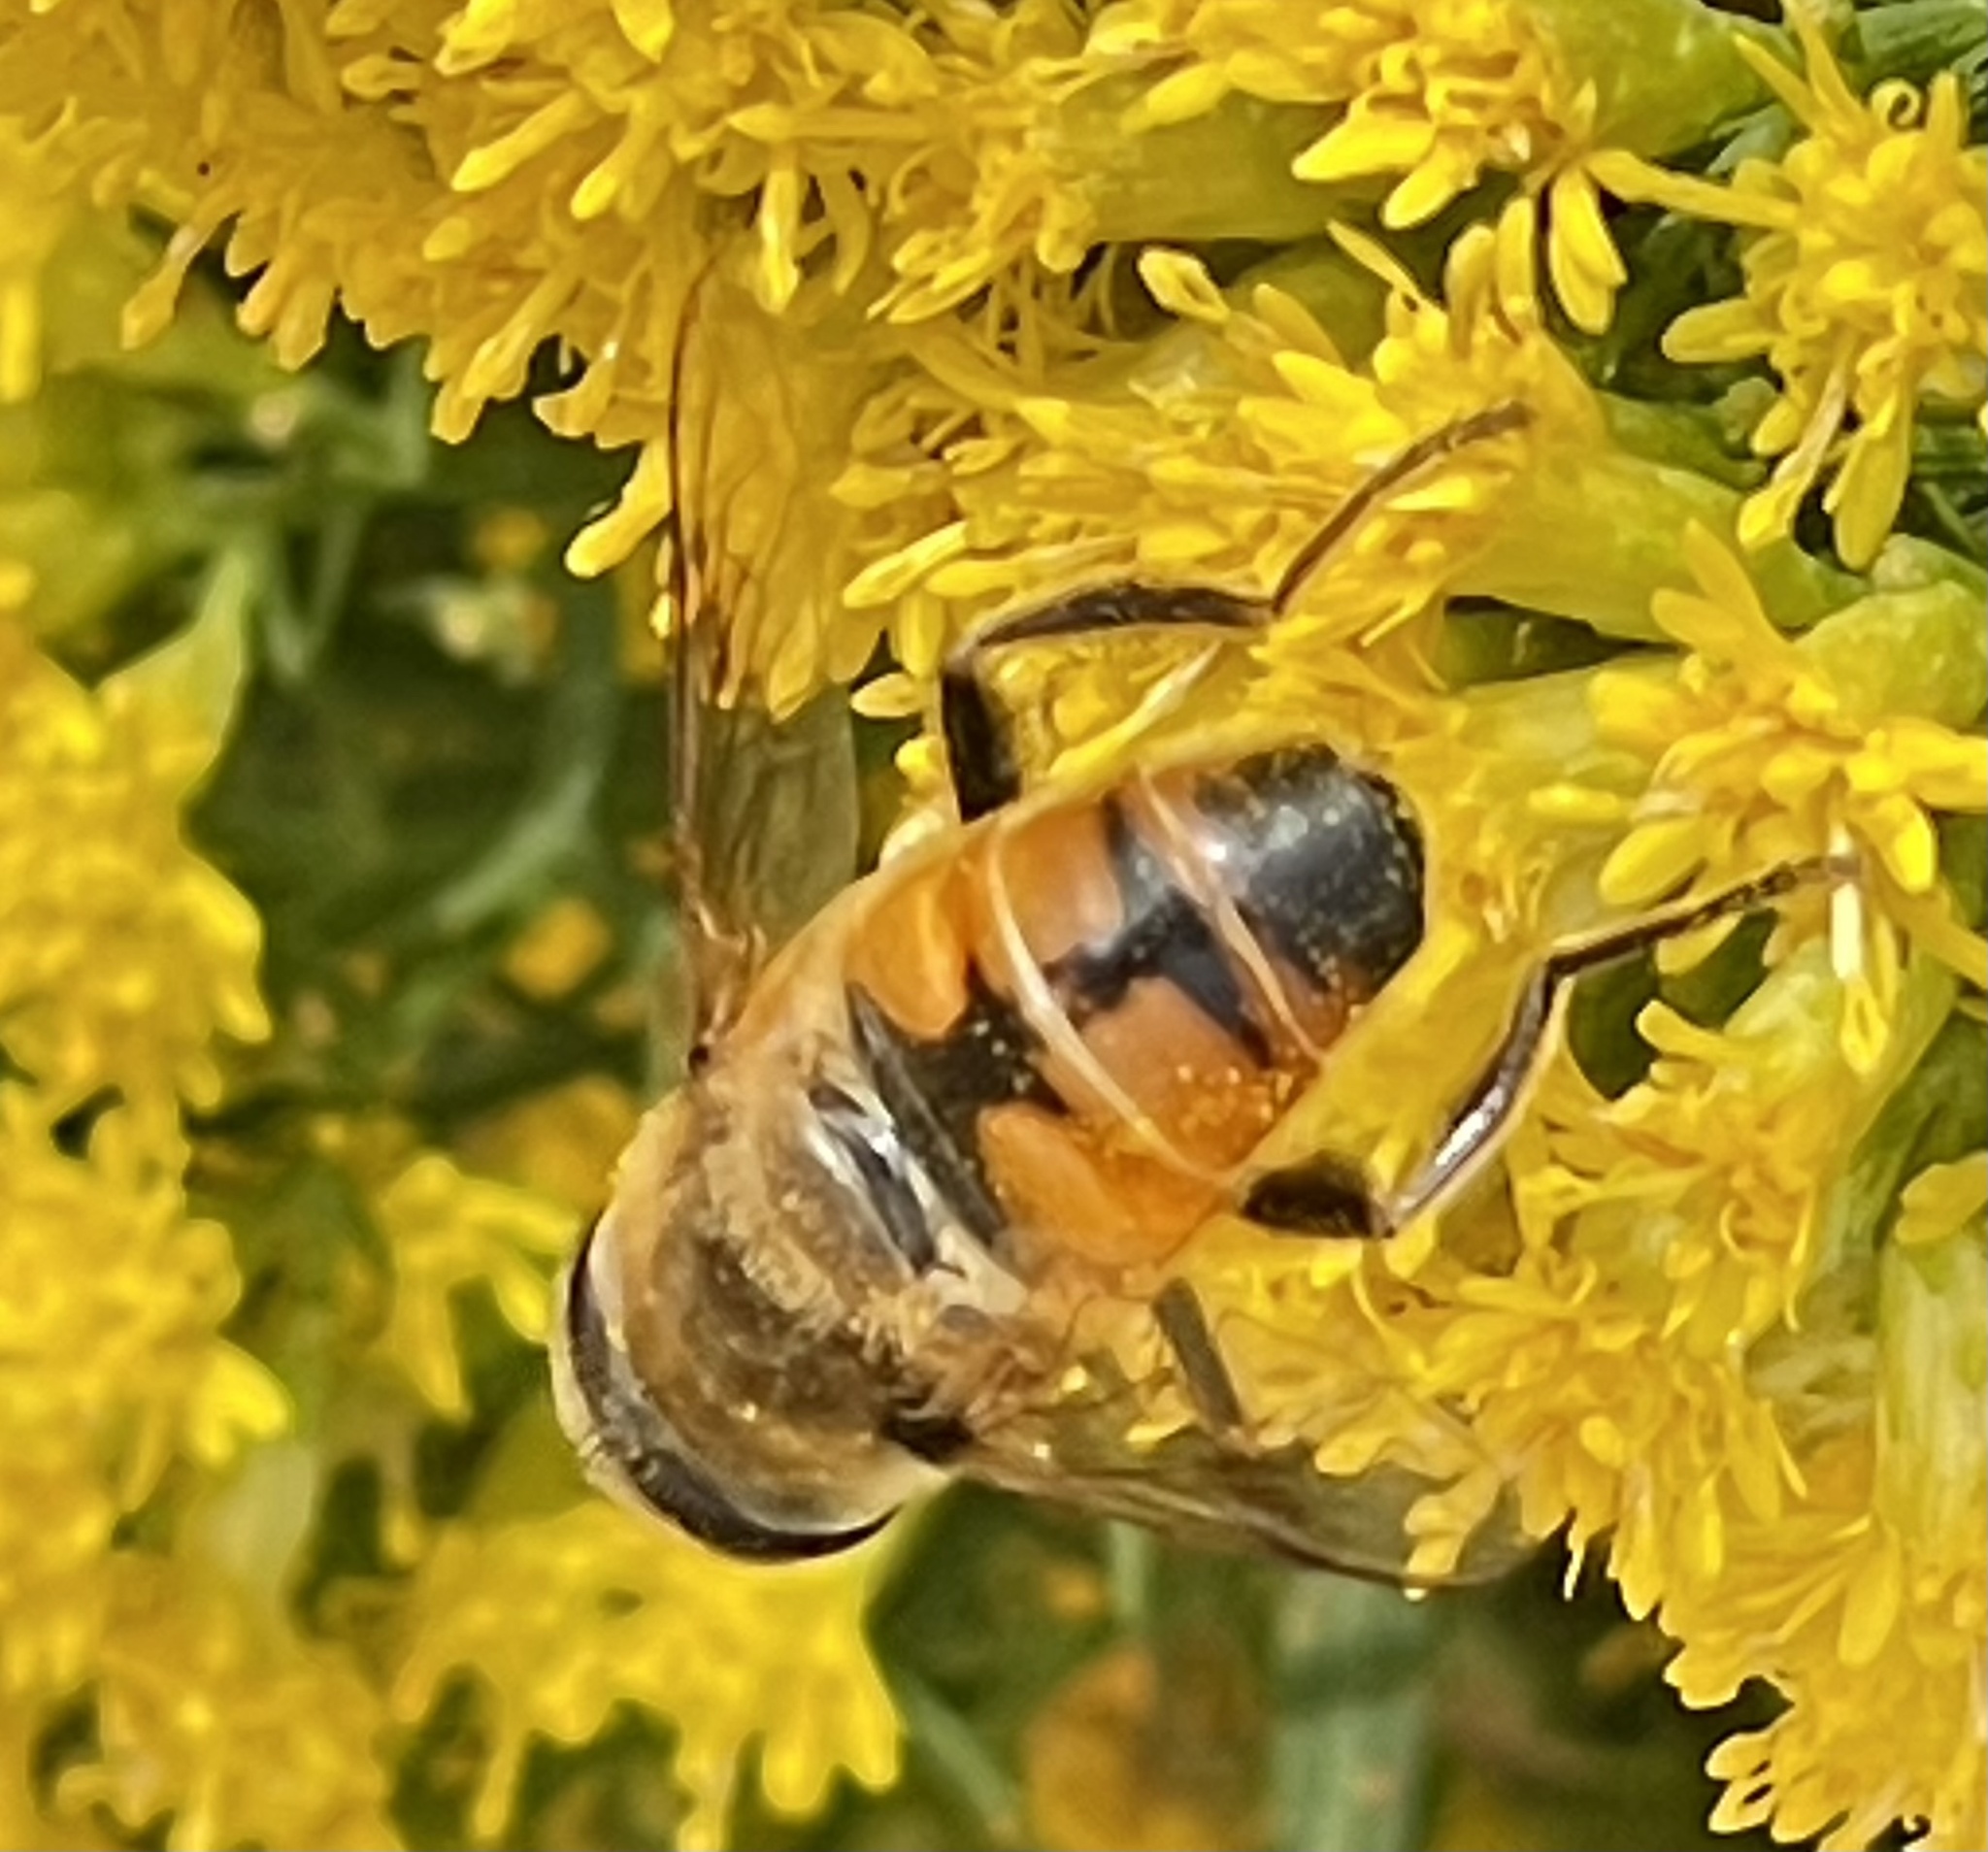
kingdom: Animalia
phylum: Arthropoda
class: Insecta
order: Diptera
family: Syrphidae
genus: Eristalis
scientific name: Eristalis tenax
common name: Drone fly
